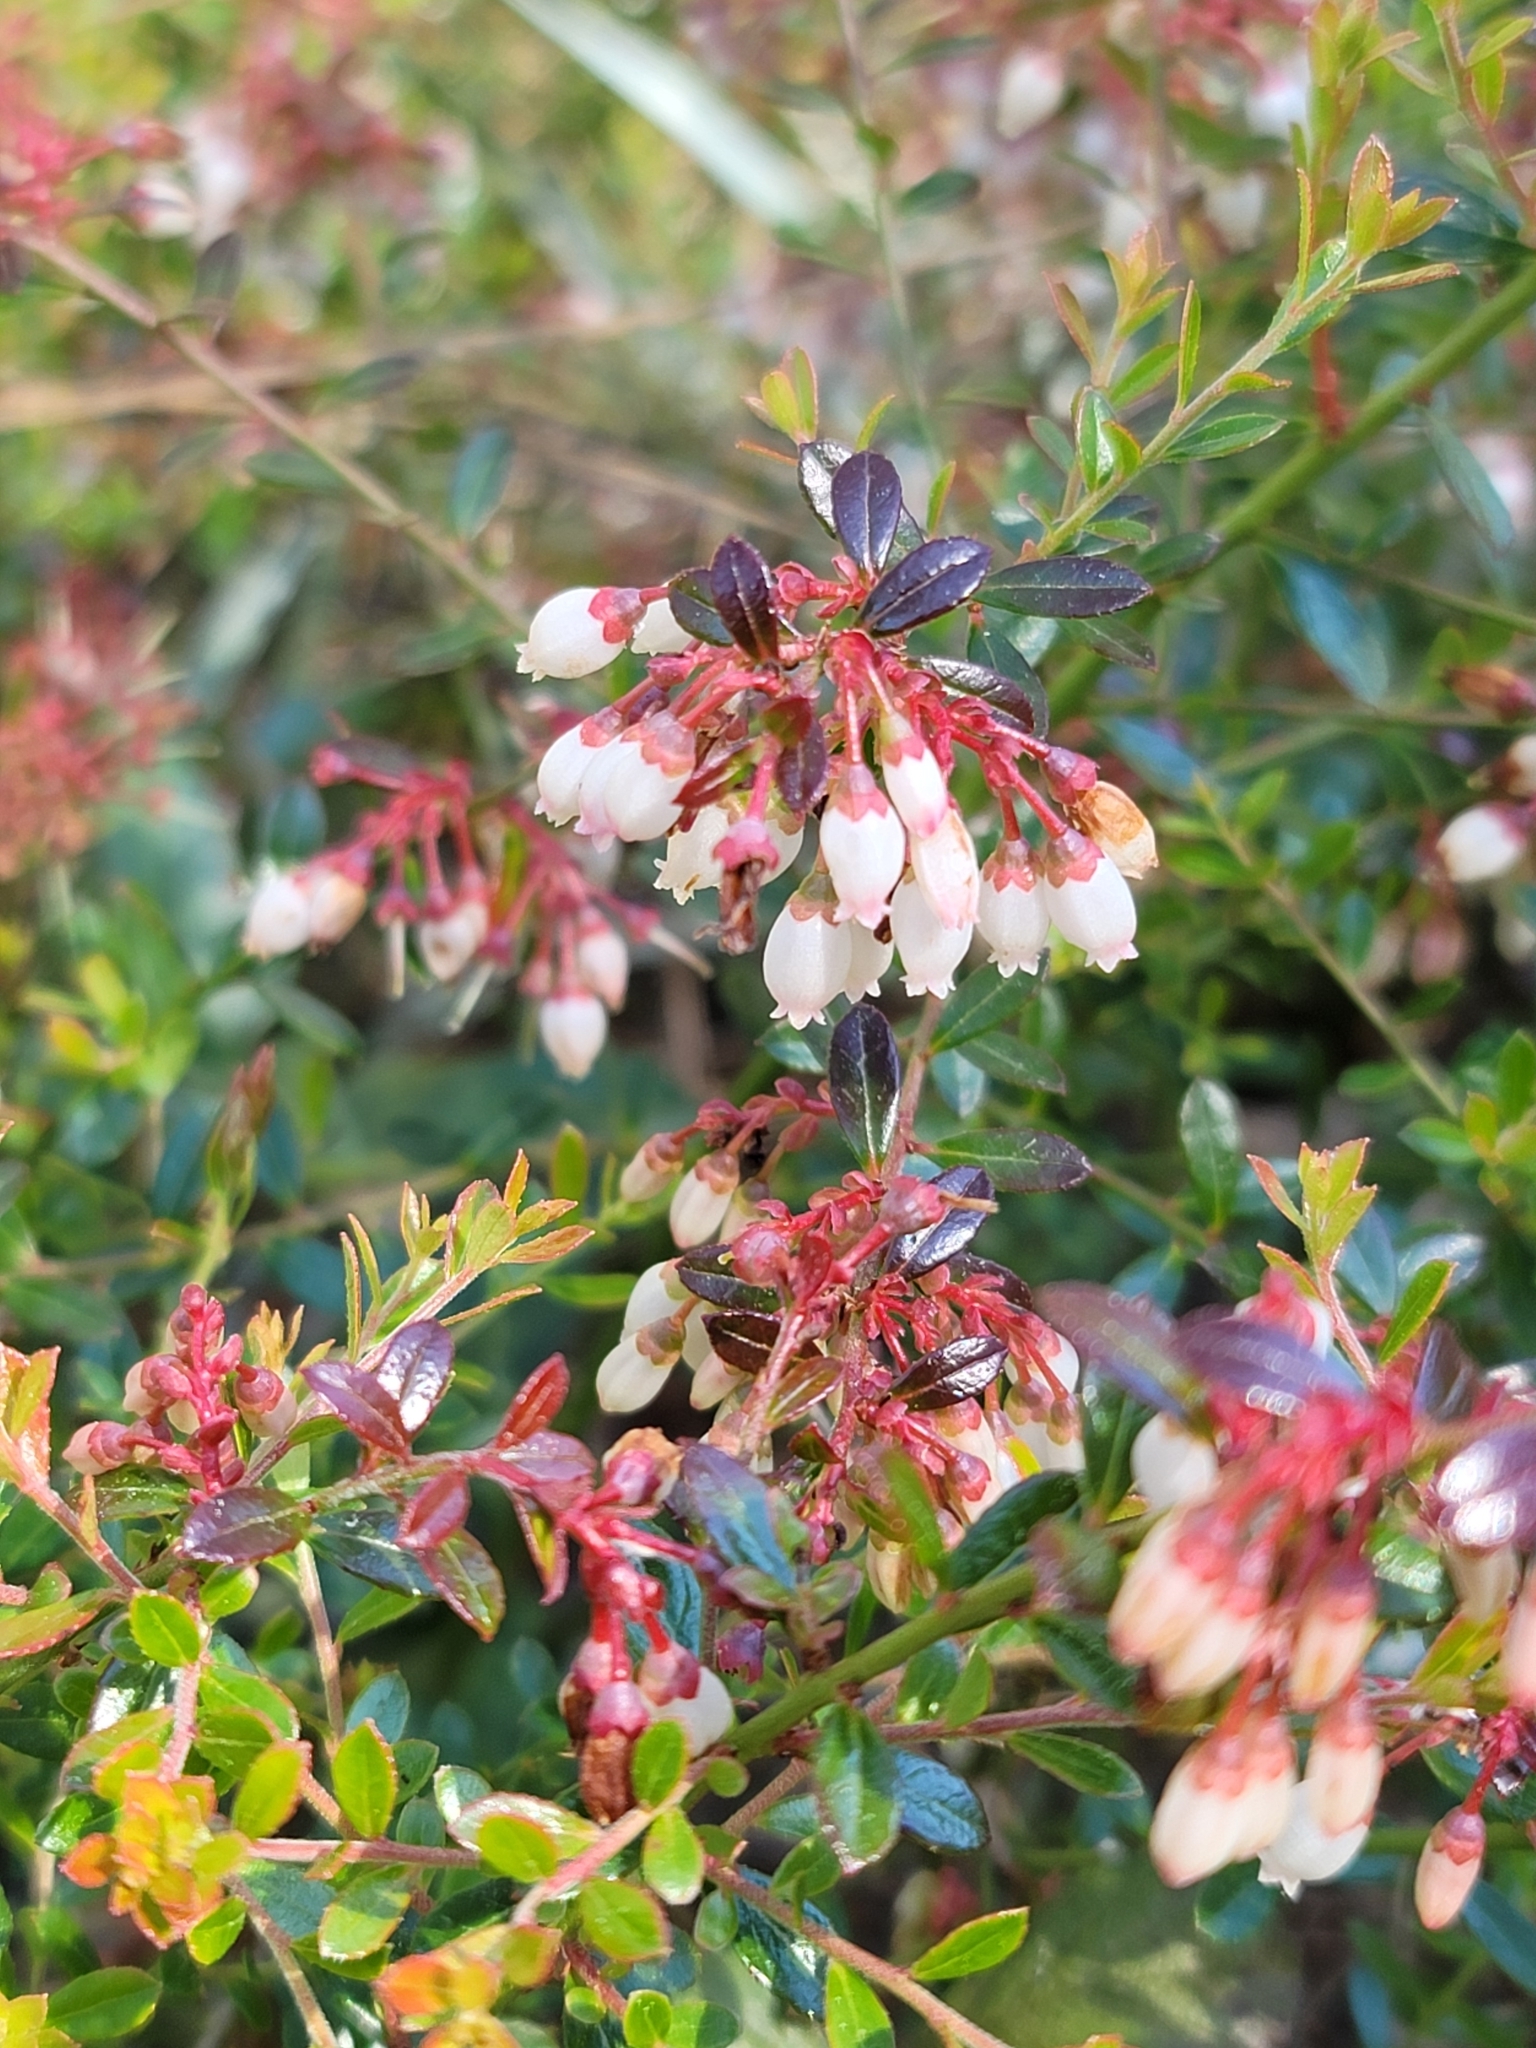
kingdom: Plantae
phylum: Tracheophyta
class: Magnoliopsida
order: Ericales
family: Ericaceae
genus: Vaccinium
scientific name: Vaccinium myrsinites
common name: Evergreen blueberry
